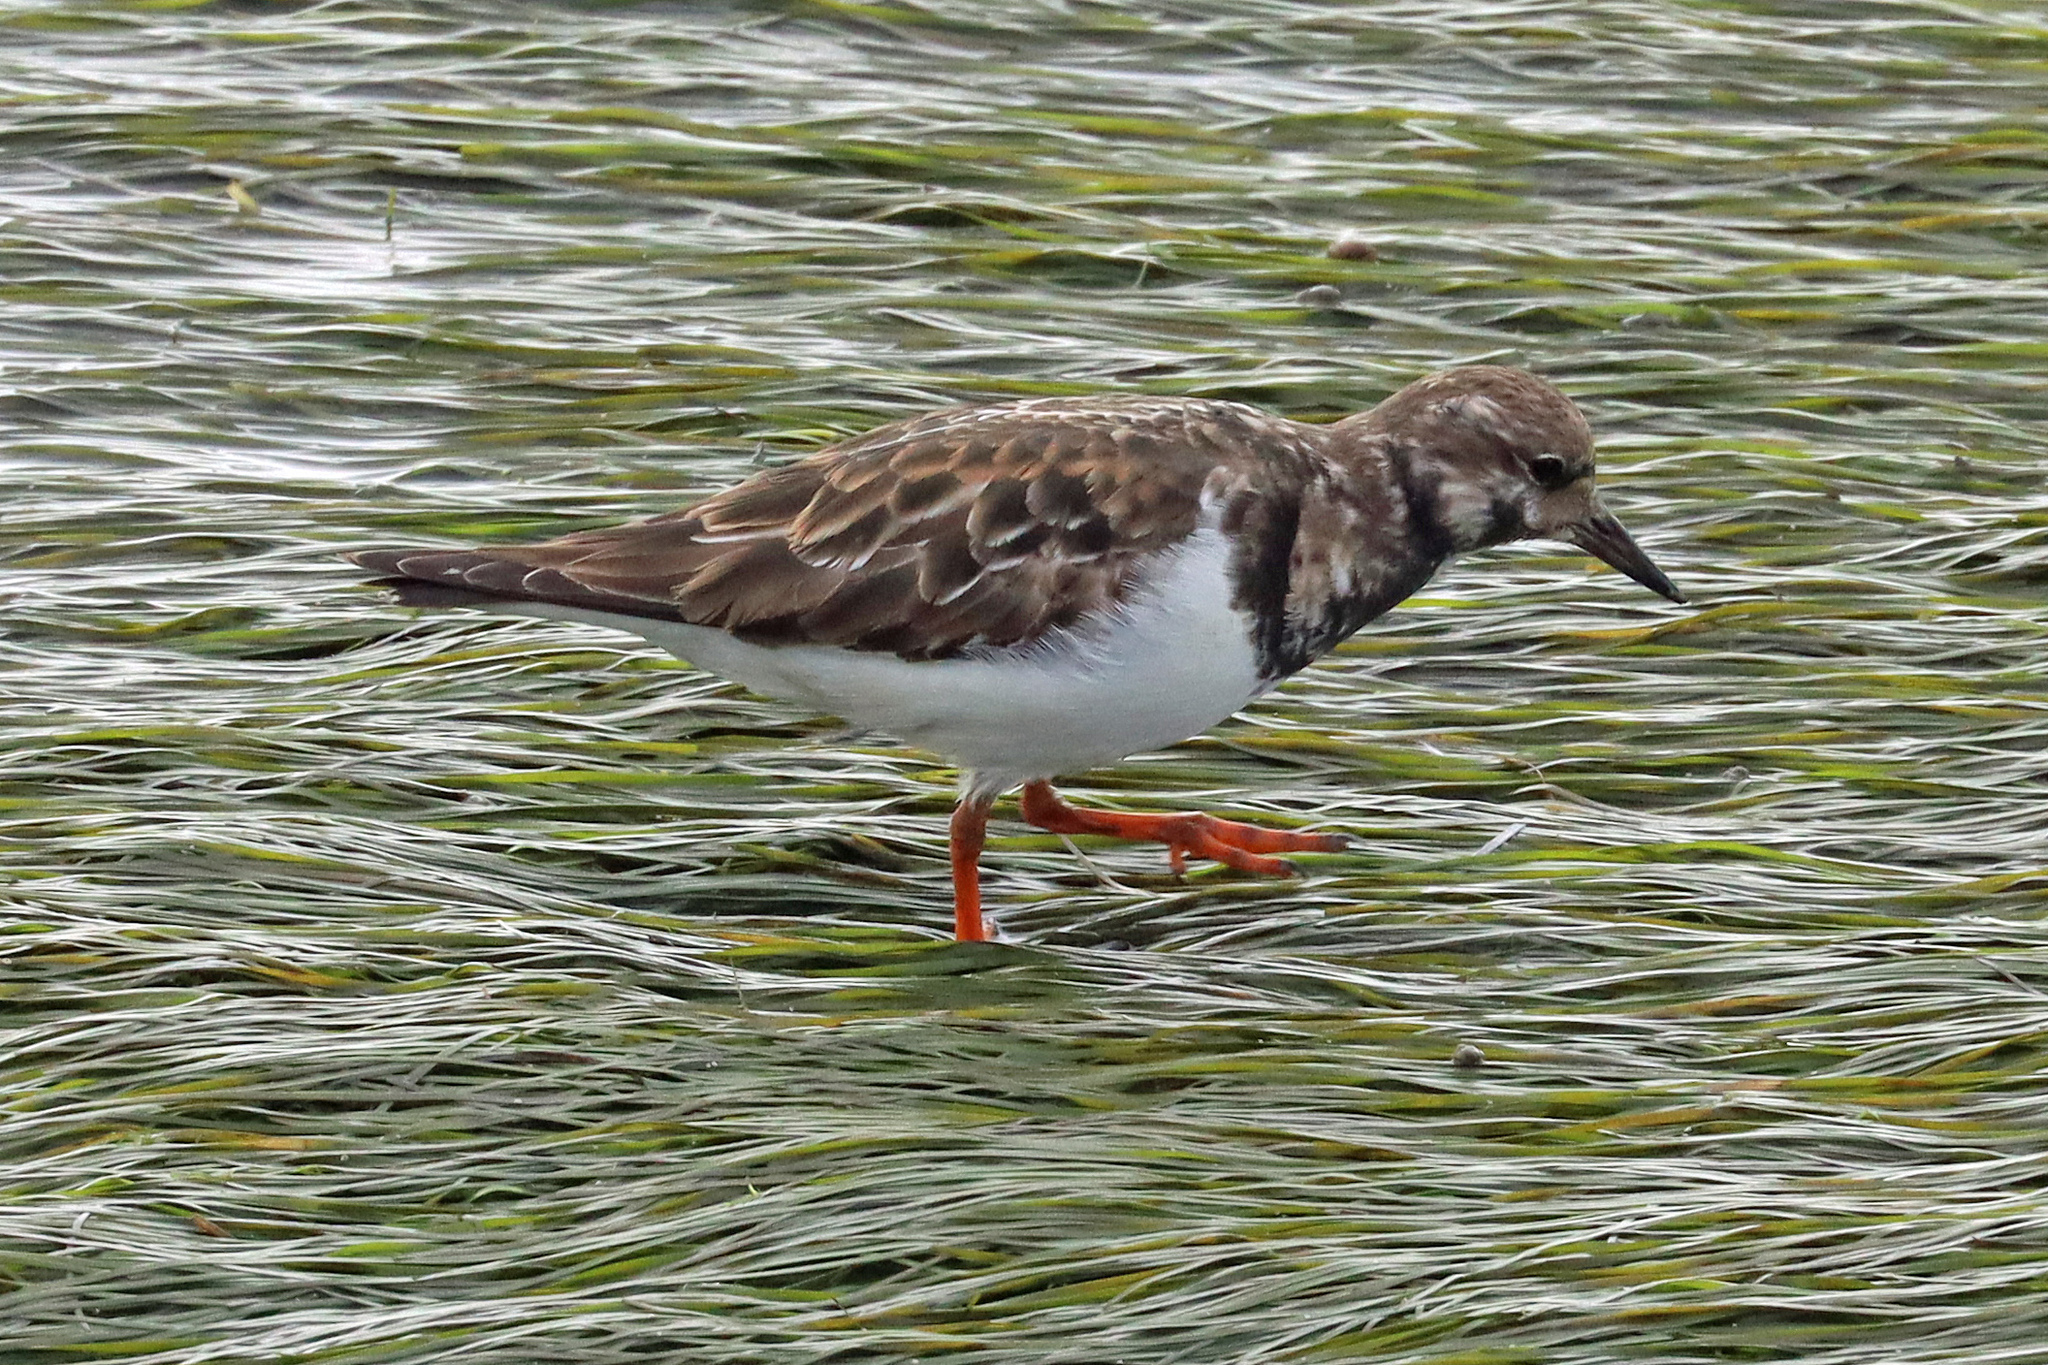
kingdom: Animalia
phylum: Chordata
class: Aves
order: Charadriiformes
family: Scolopacidae
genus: Arenaria
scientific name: Arenaria interpres
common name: Ruddy turnstone
